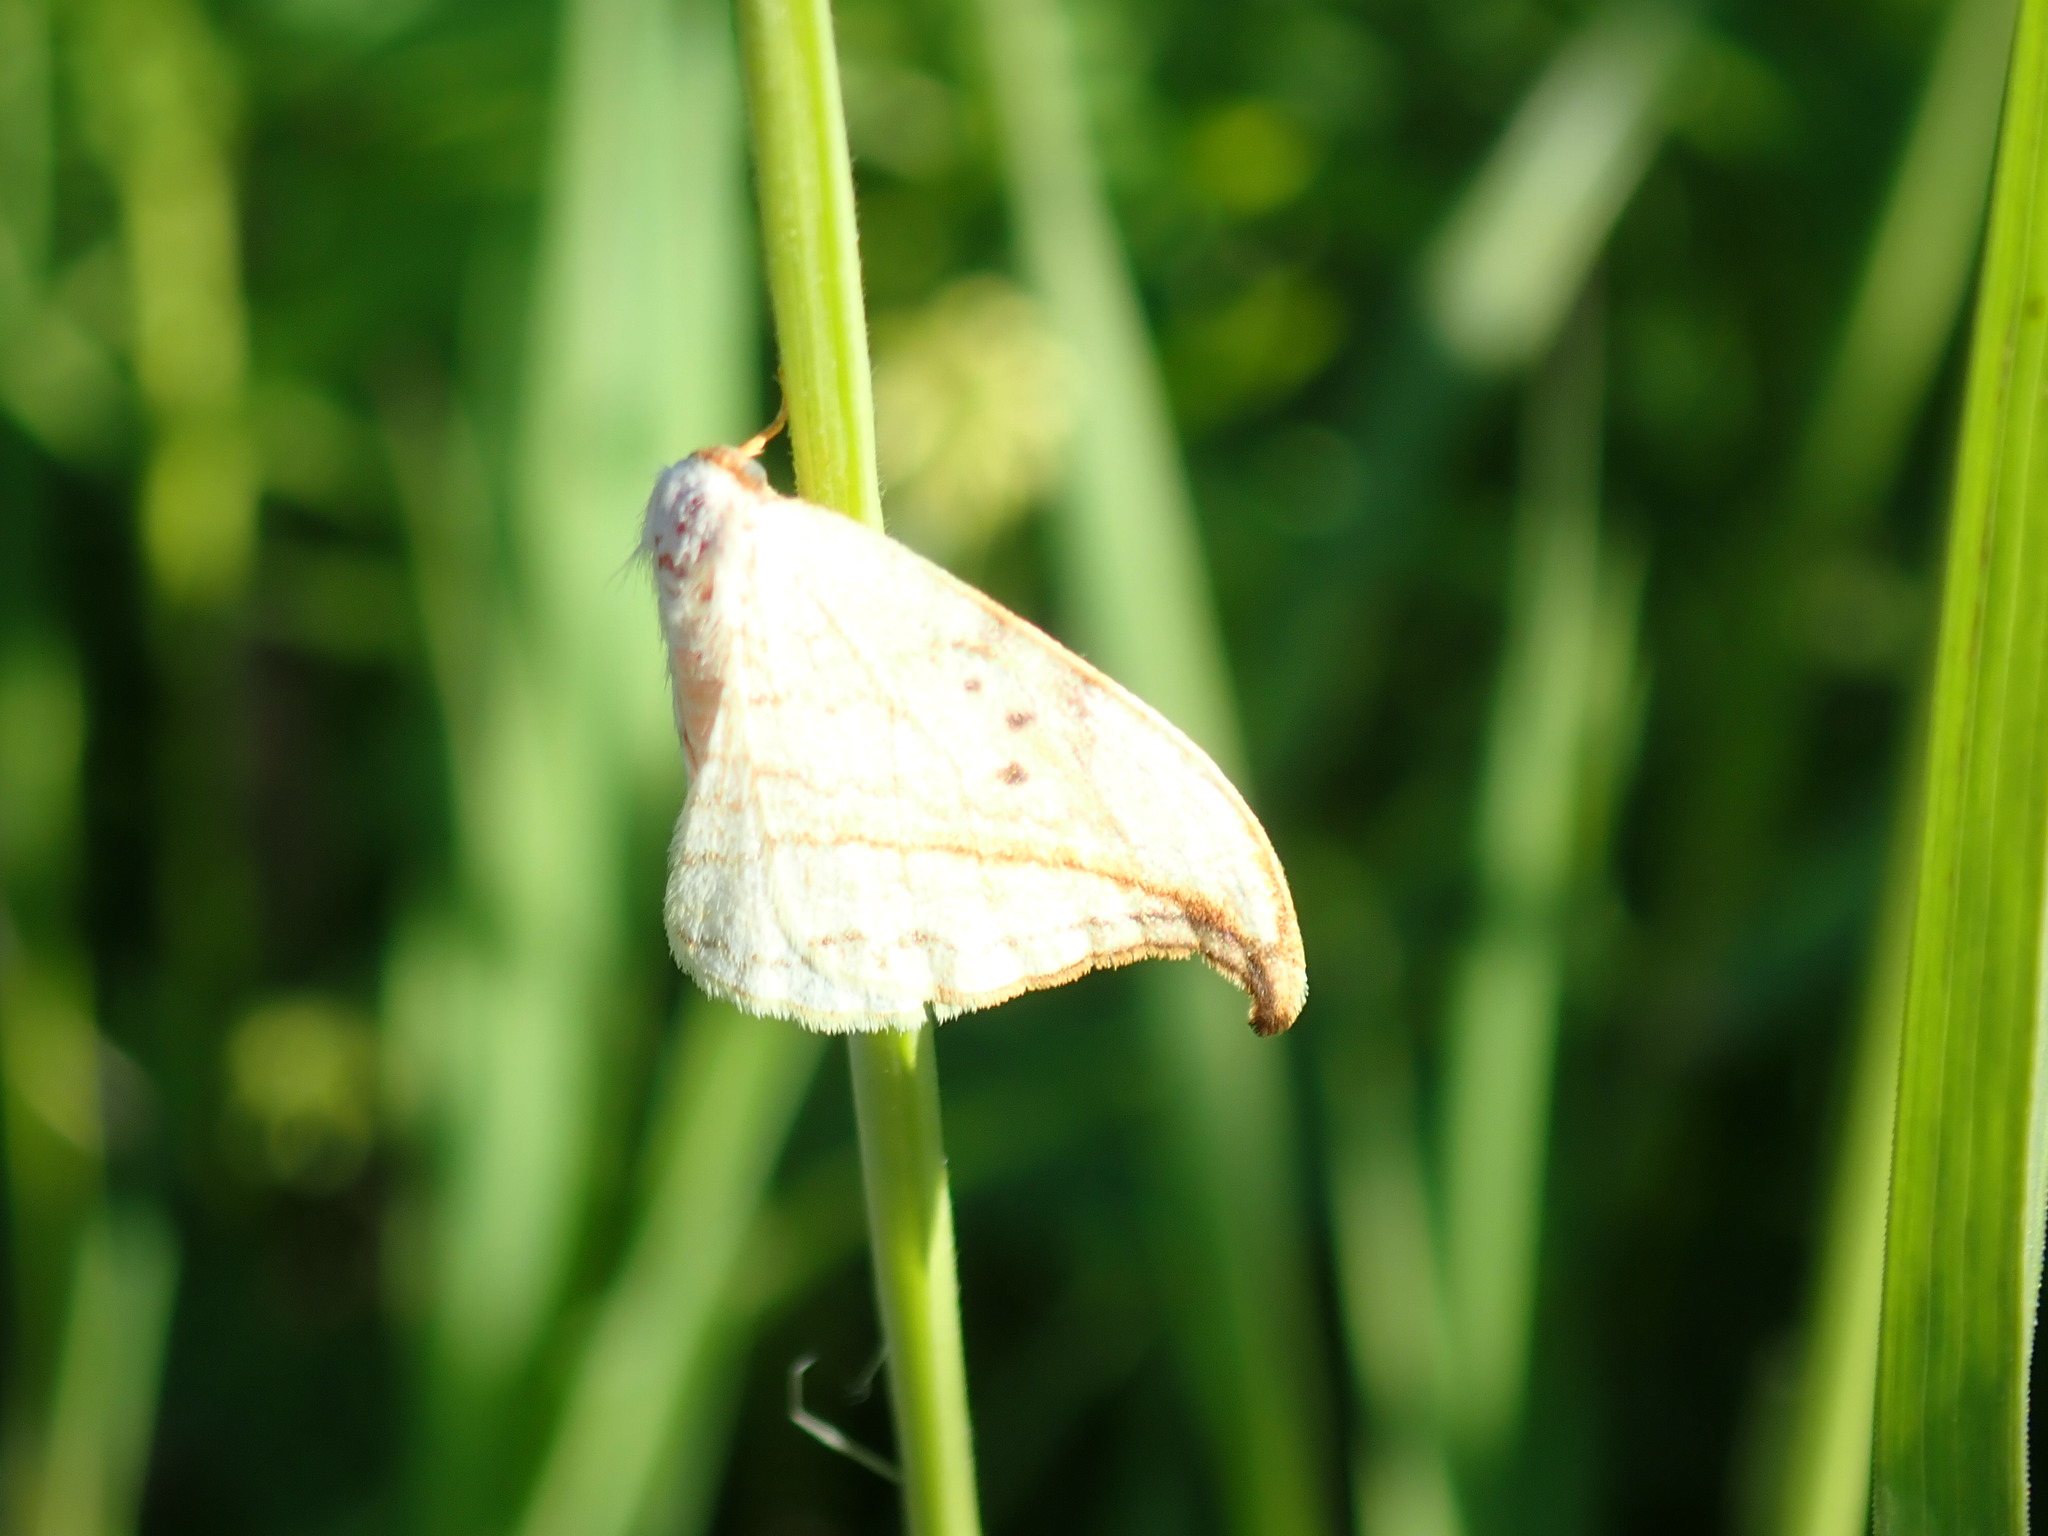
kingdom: Animalia
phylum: Arthropoda
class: Insecta
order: Lepidoptera
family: Drepanidae
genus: Drepana
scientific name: Drepana arcuata
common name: Arched hooktip moth
